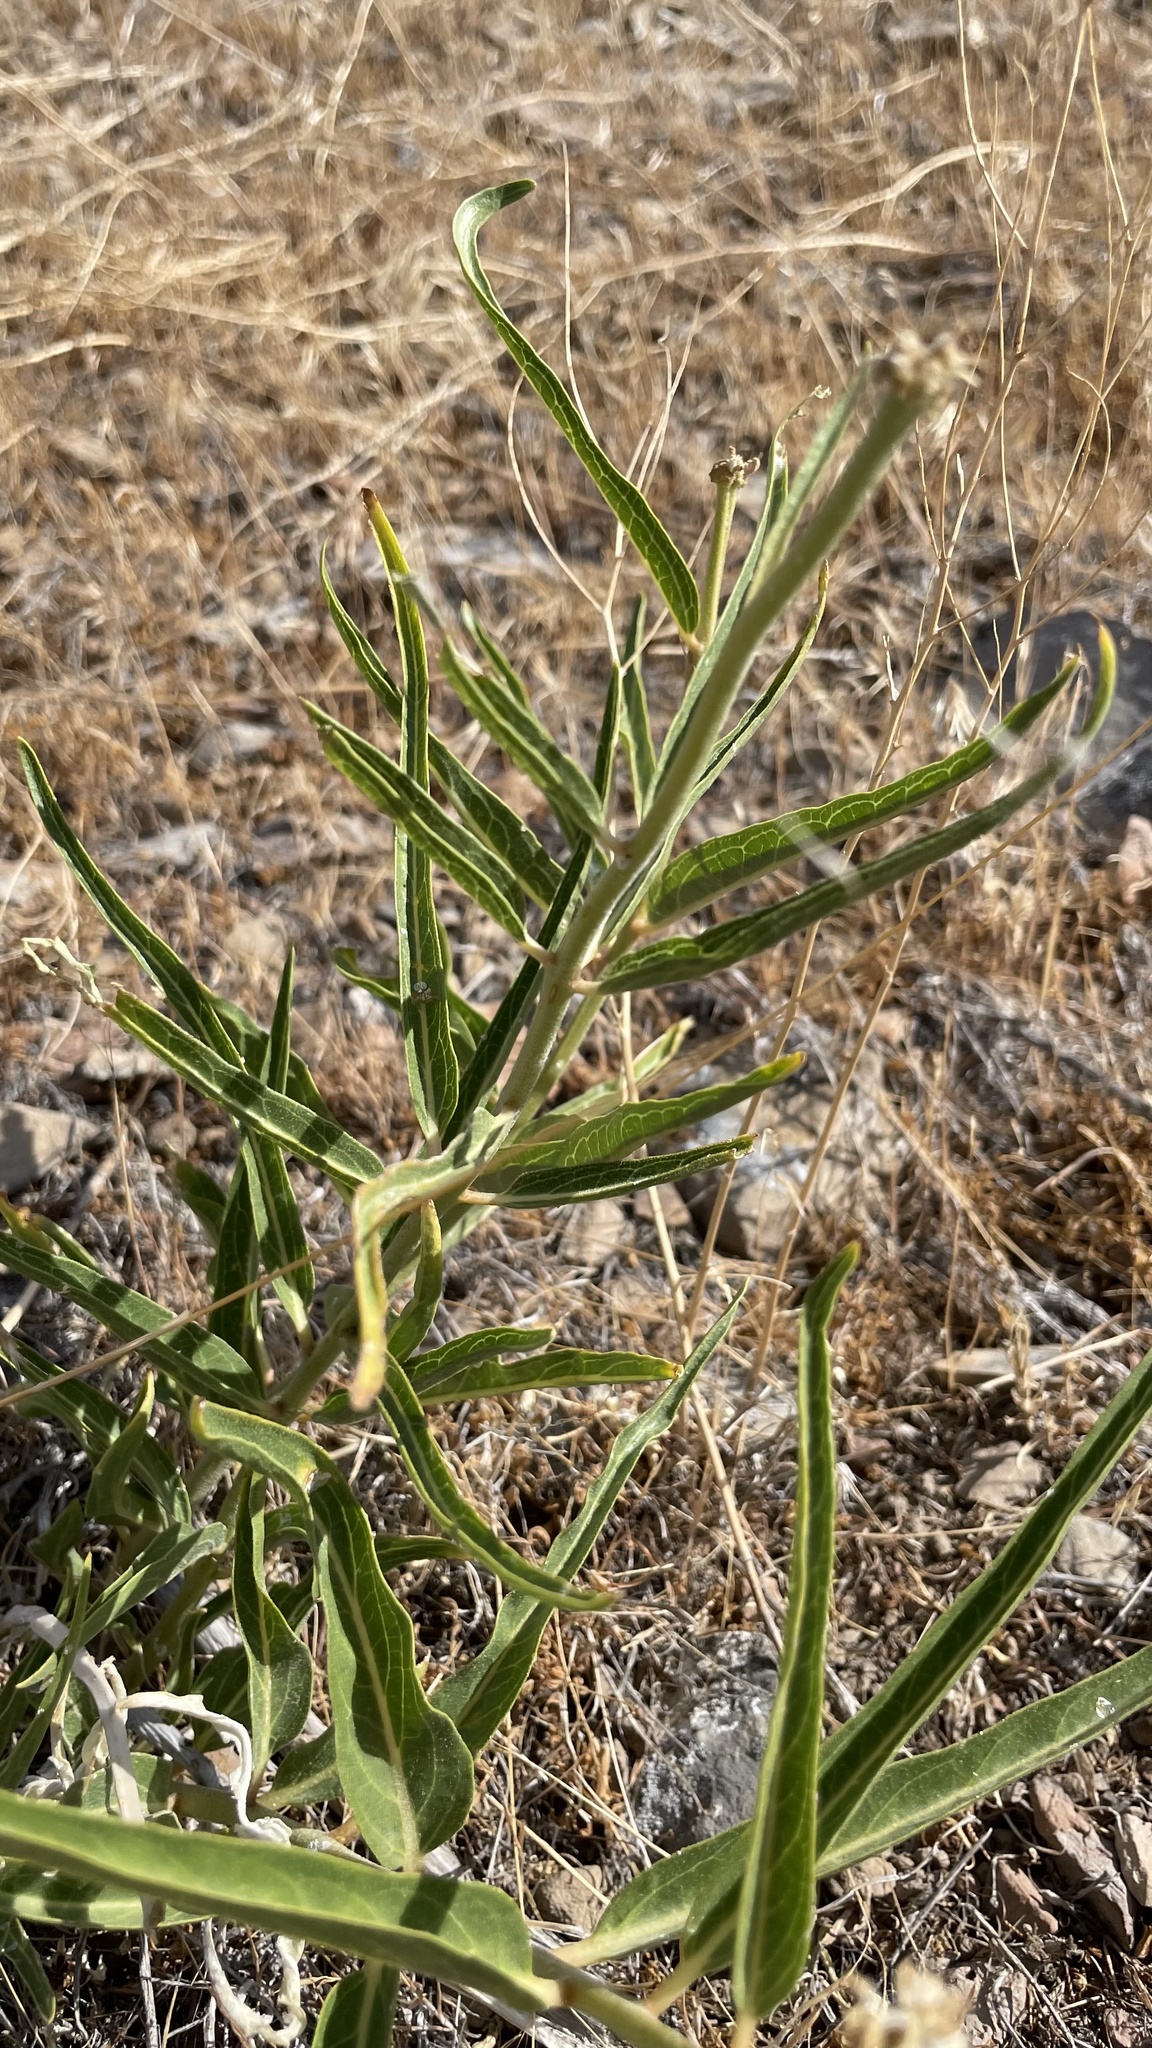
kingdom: Plantae
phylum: Tracheophyta
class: Magnoliopsida
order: Gentianales
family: Apocynaceae
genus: Asclepias
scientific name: Asclepias asperula
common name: Antelope horns
